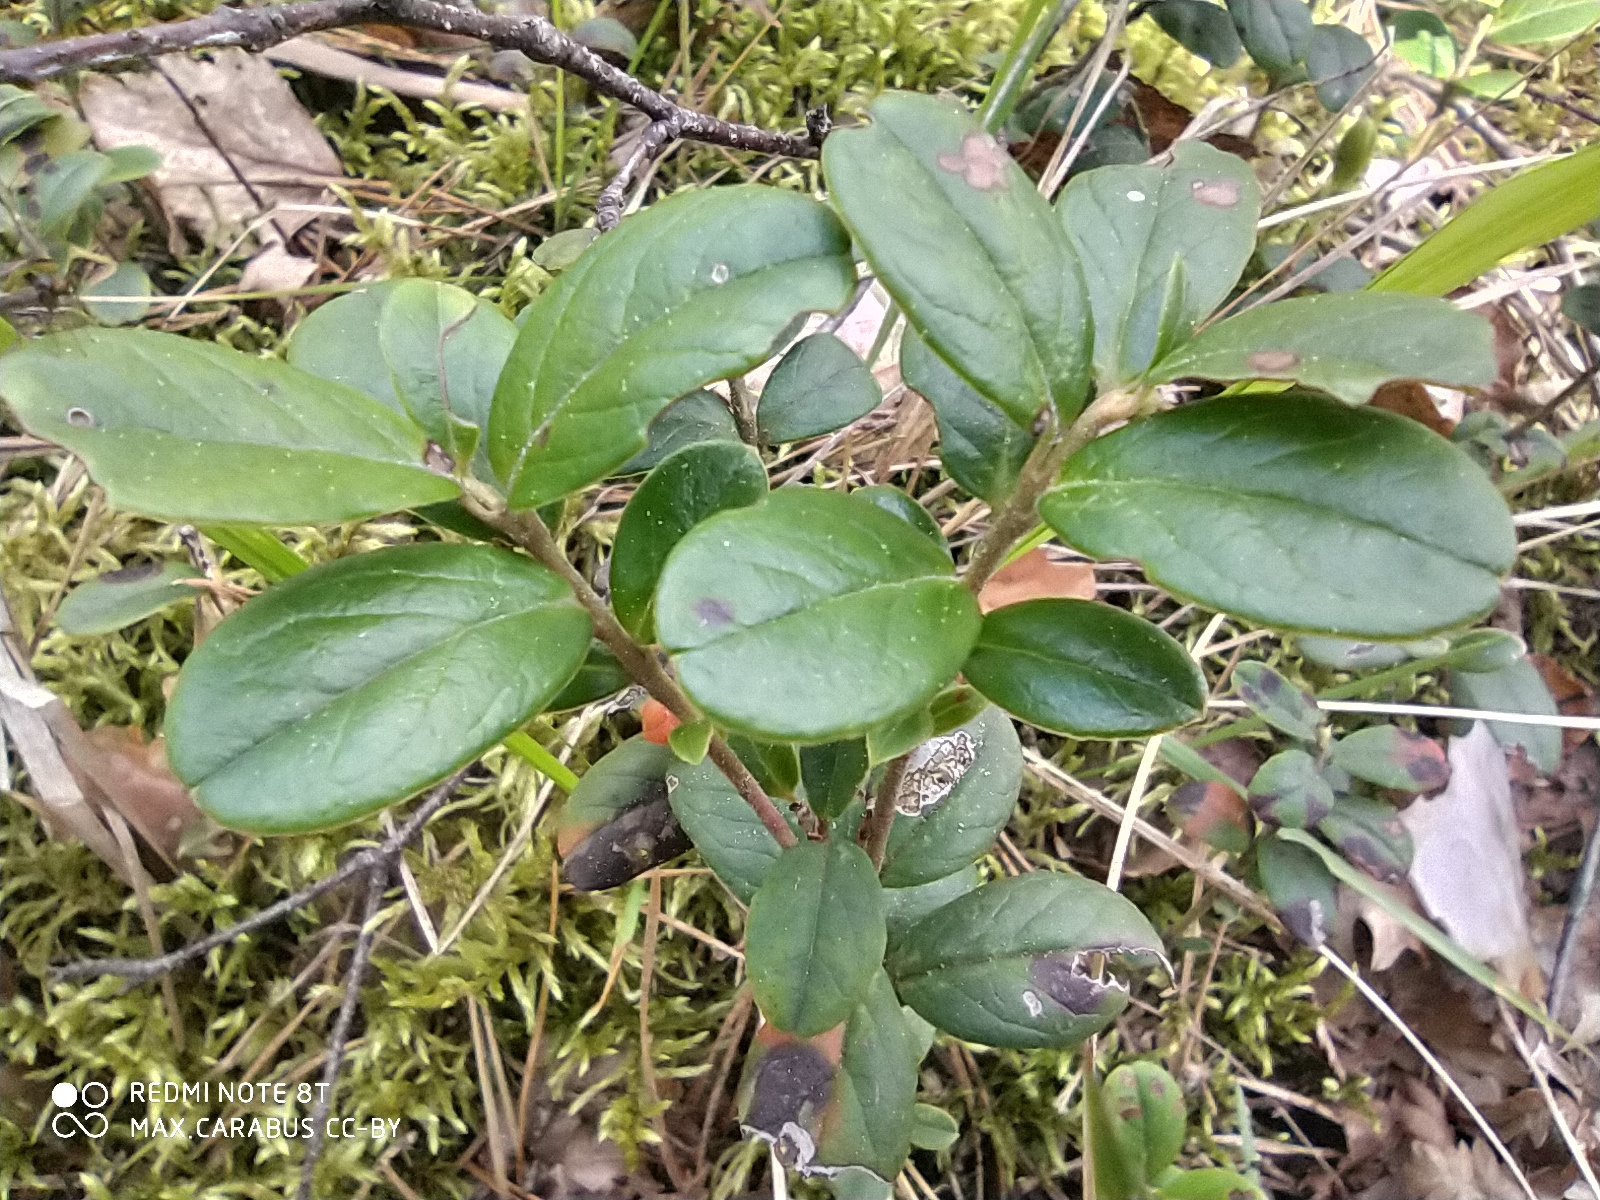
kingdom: Plantae
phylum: Tracheophyta
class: Magnoliopsida
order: Ericales
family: Ericaceae
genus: Vaccinium
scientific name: Vaccinium vitis-idaea
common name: Cowberry
